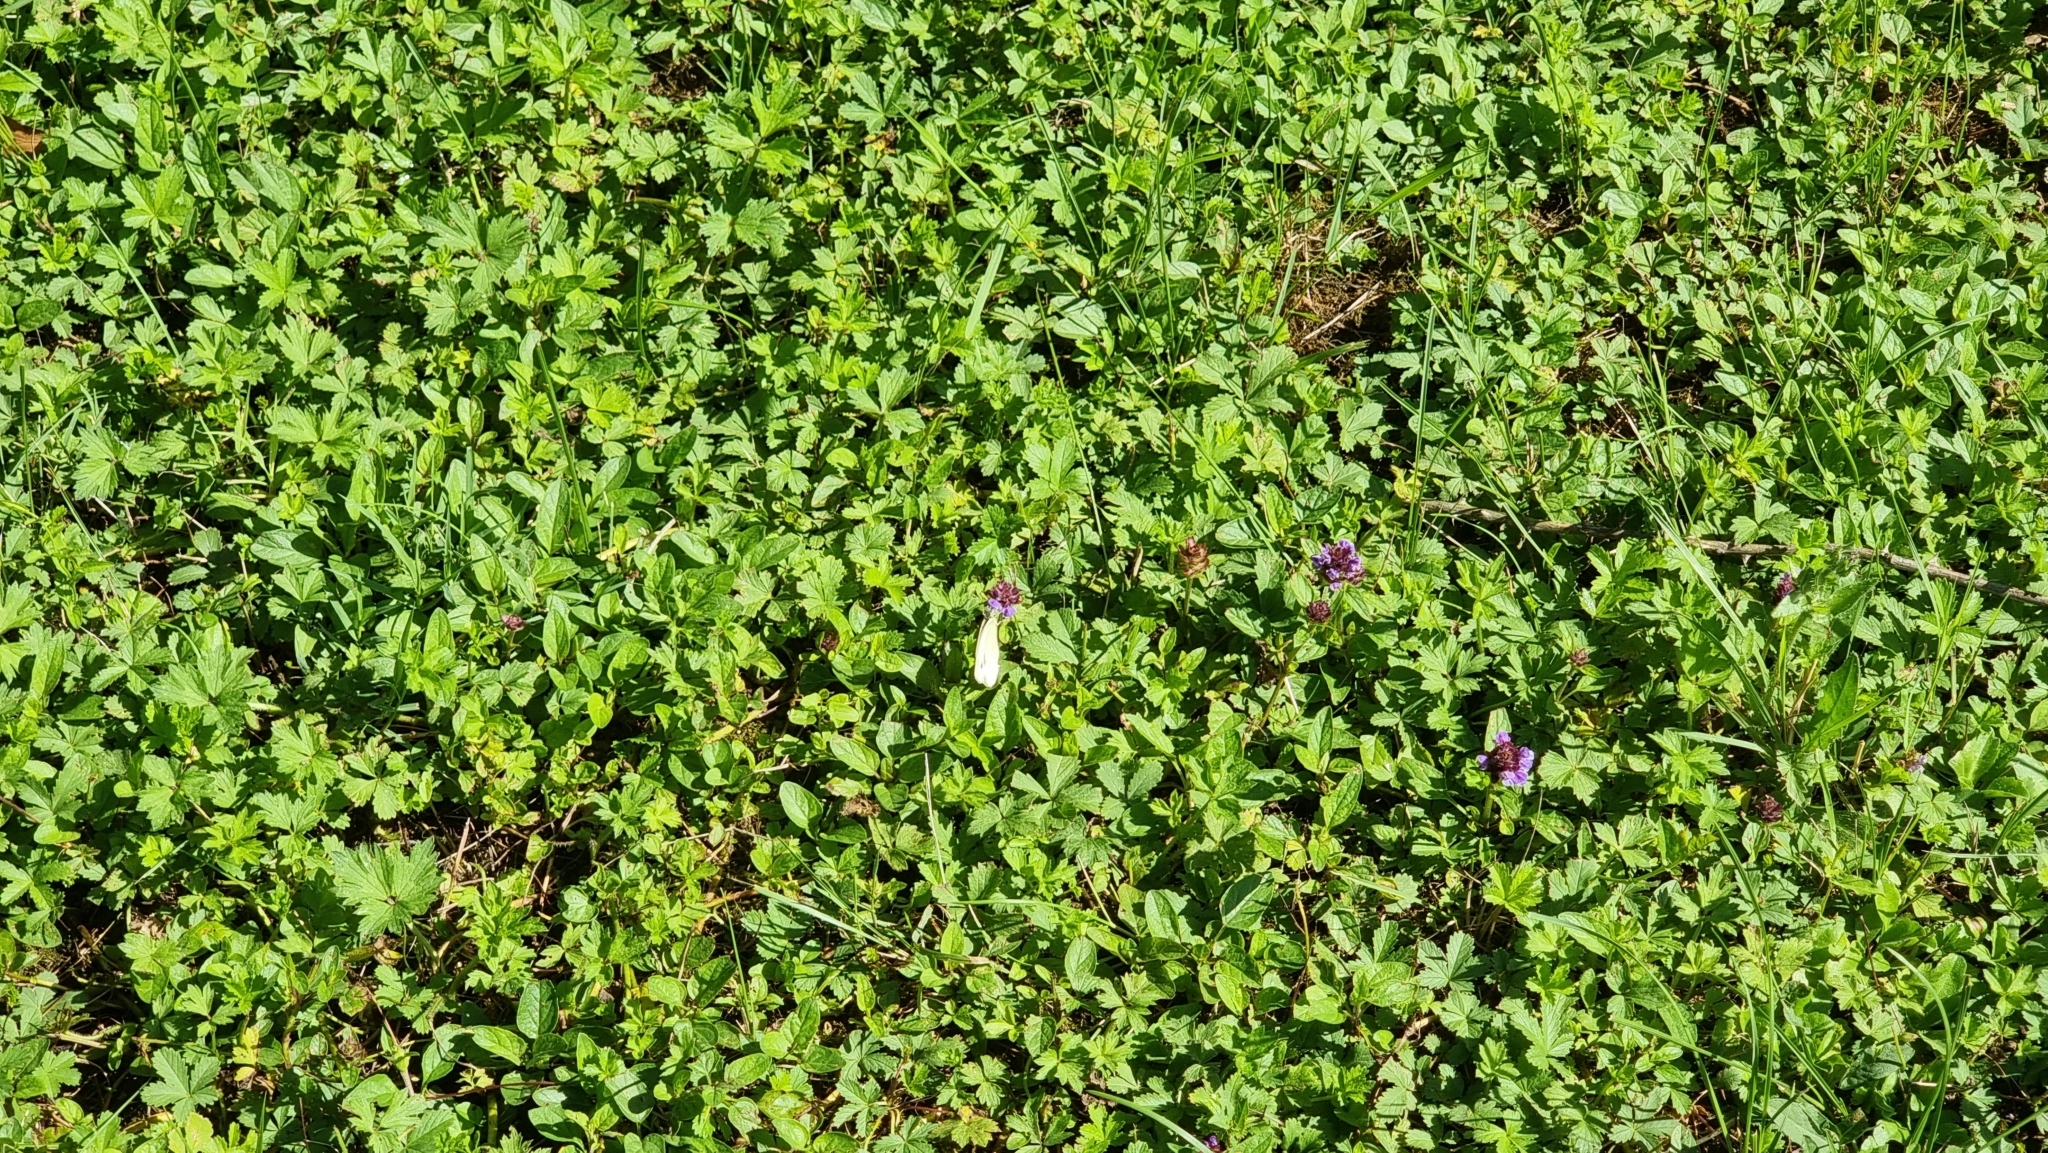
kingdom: Animalia
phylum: Arthropoda
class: Insecta
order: Lepidoptera
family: Pieridae
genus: Pieris
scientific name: Pieris napi
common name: Green-veined white
